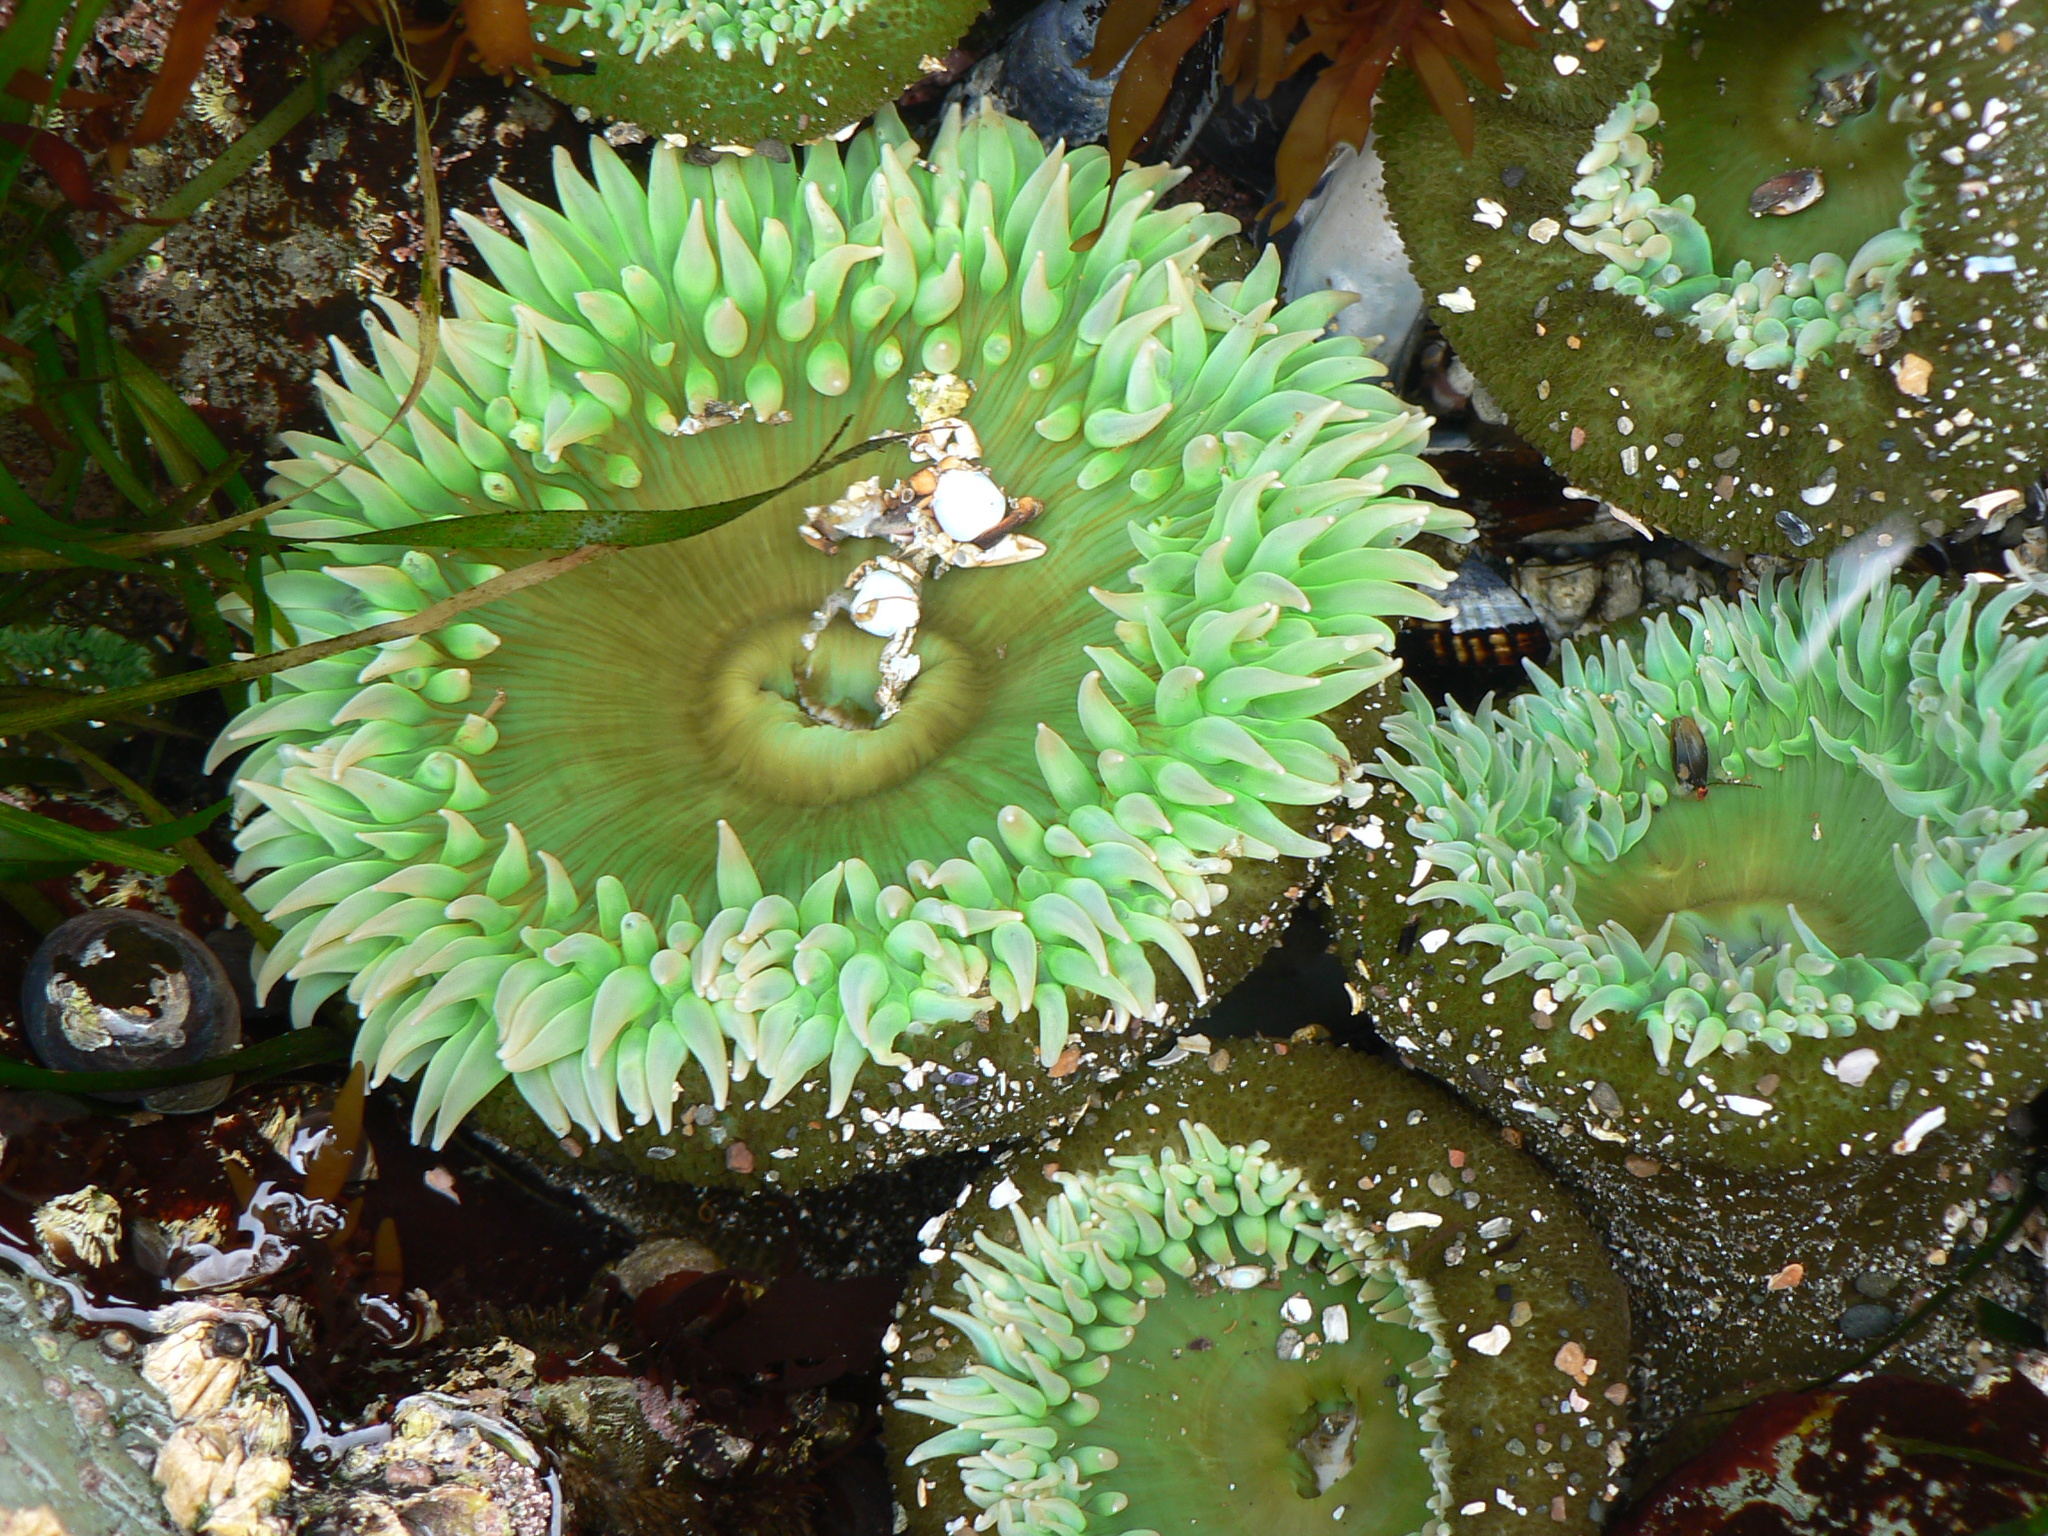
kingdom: Animalia
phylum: Cnidaria
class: Anthozoa
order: Actiniaria
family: Actiniidae
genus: Anthopleura
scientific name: Anthopleura xanthogrammica
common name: Giant green anemone
